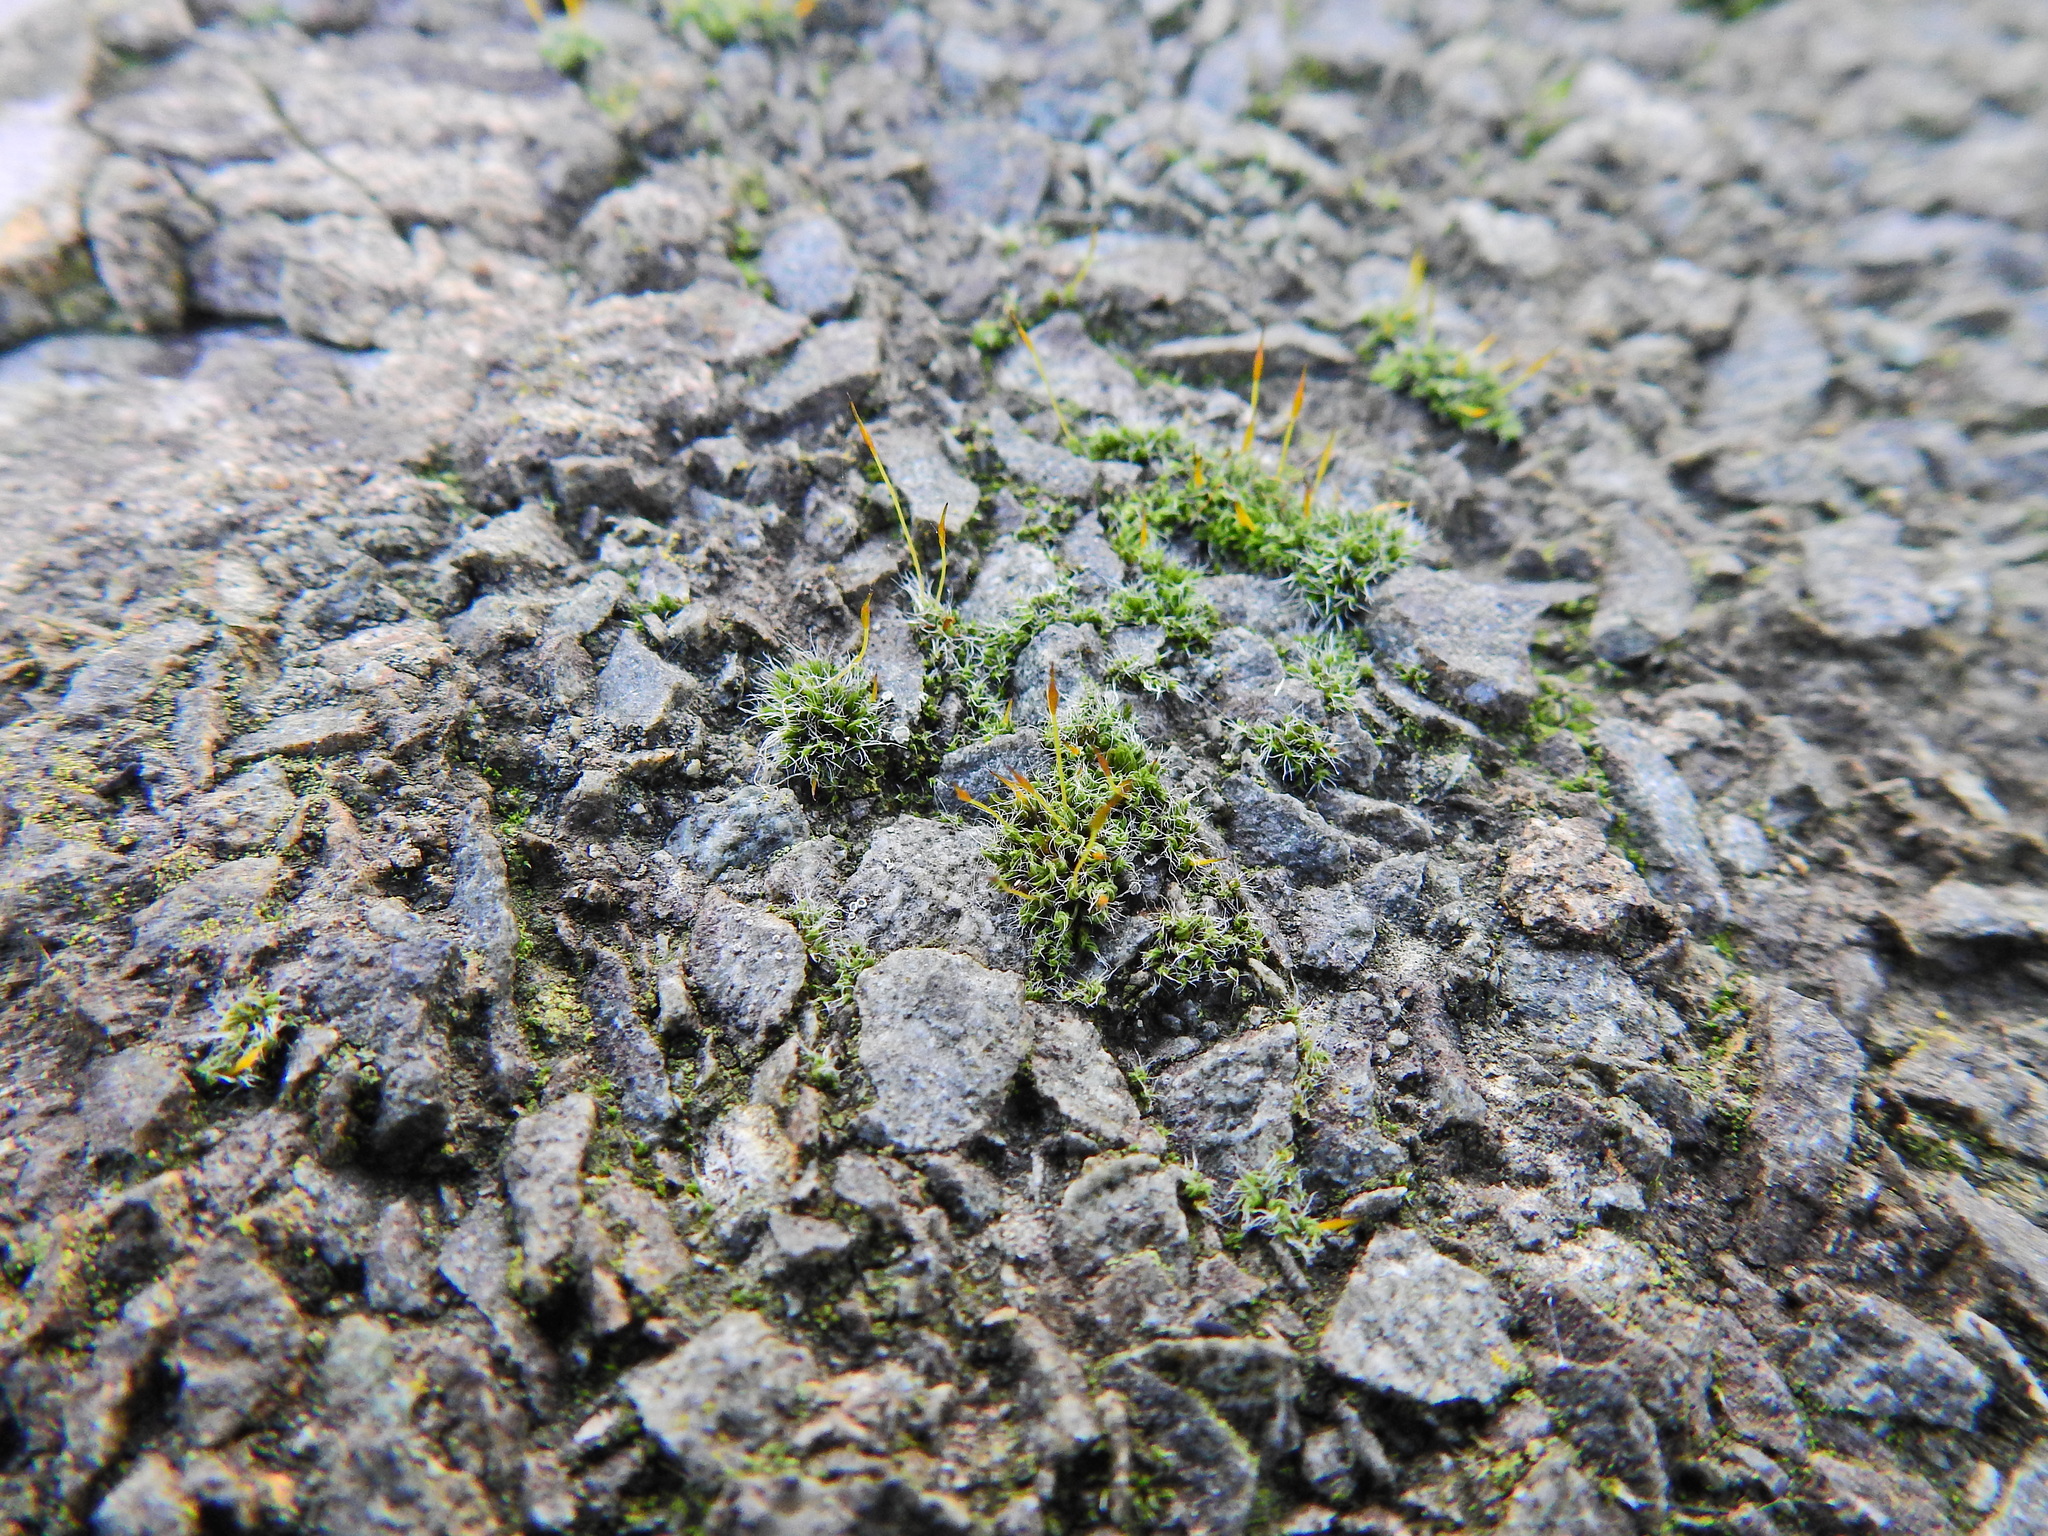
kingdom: Plantae
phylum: Bryophyta
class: Bryopsida
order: Pottiales
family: Pottiaceae
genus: Tortula
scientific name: Tortula muralis
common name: Wall screw-moss
